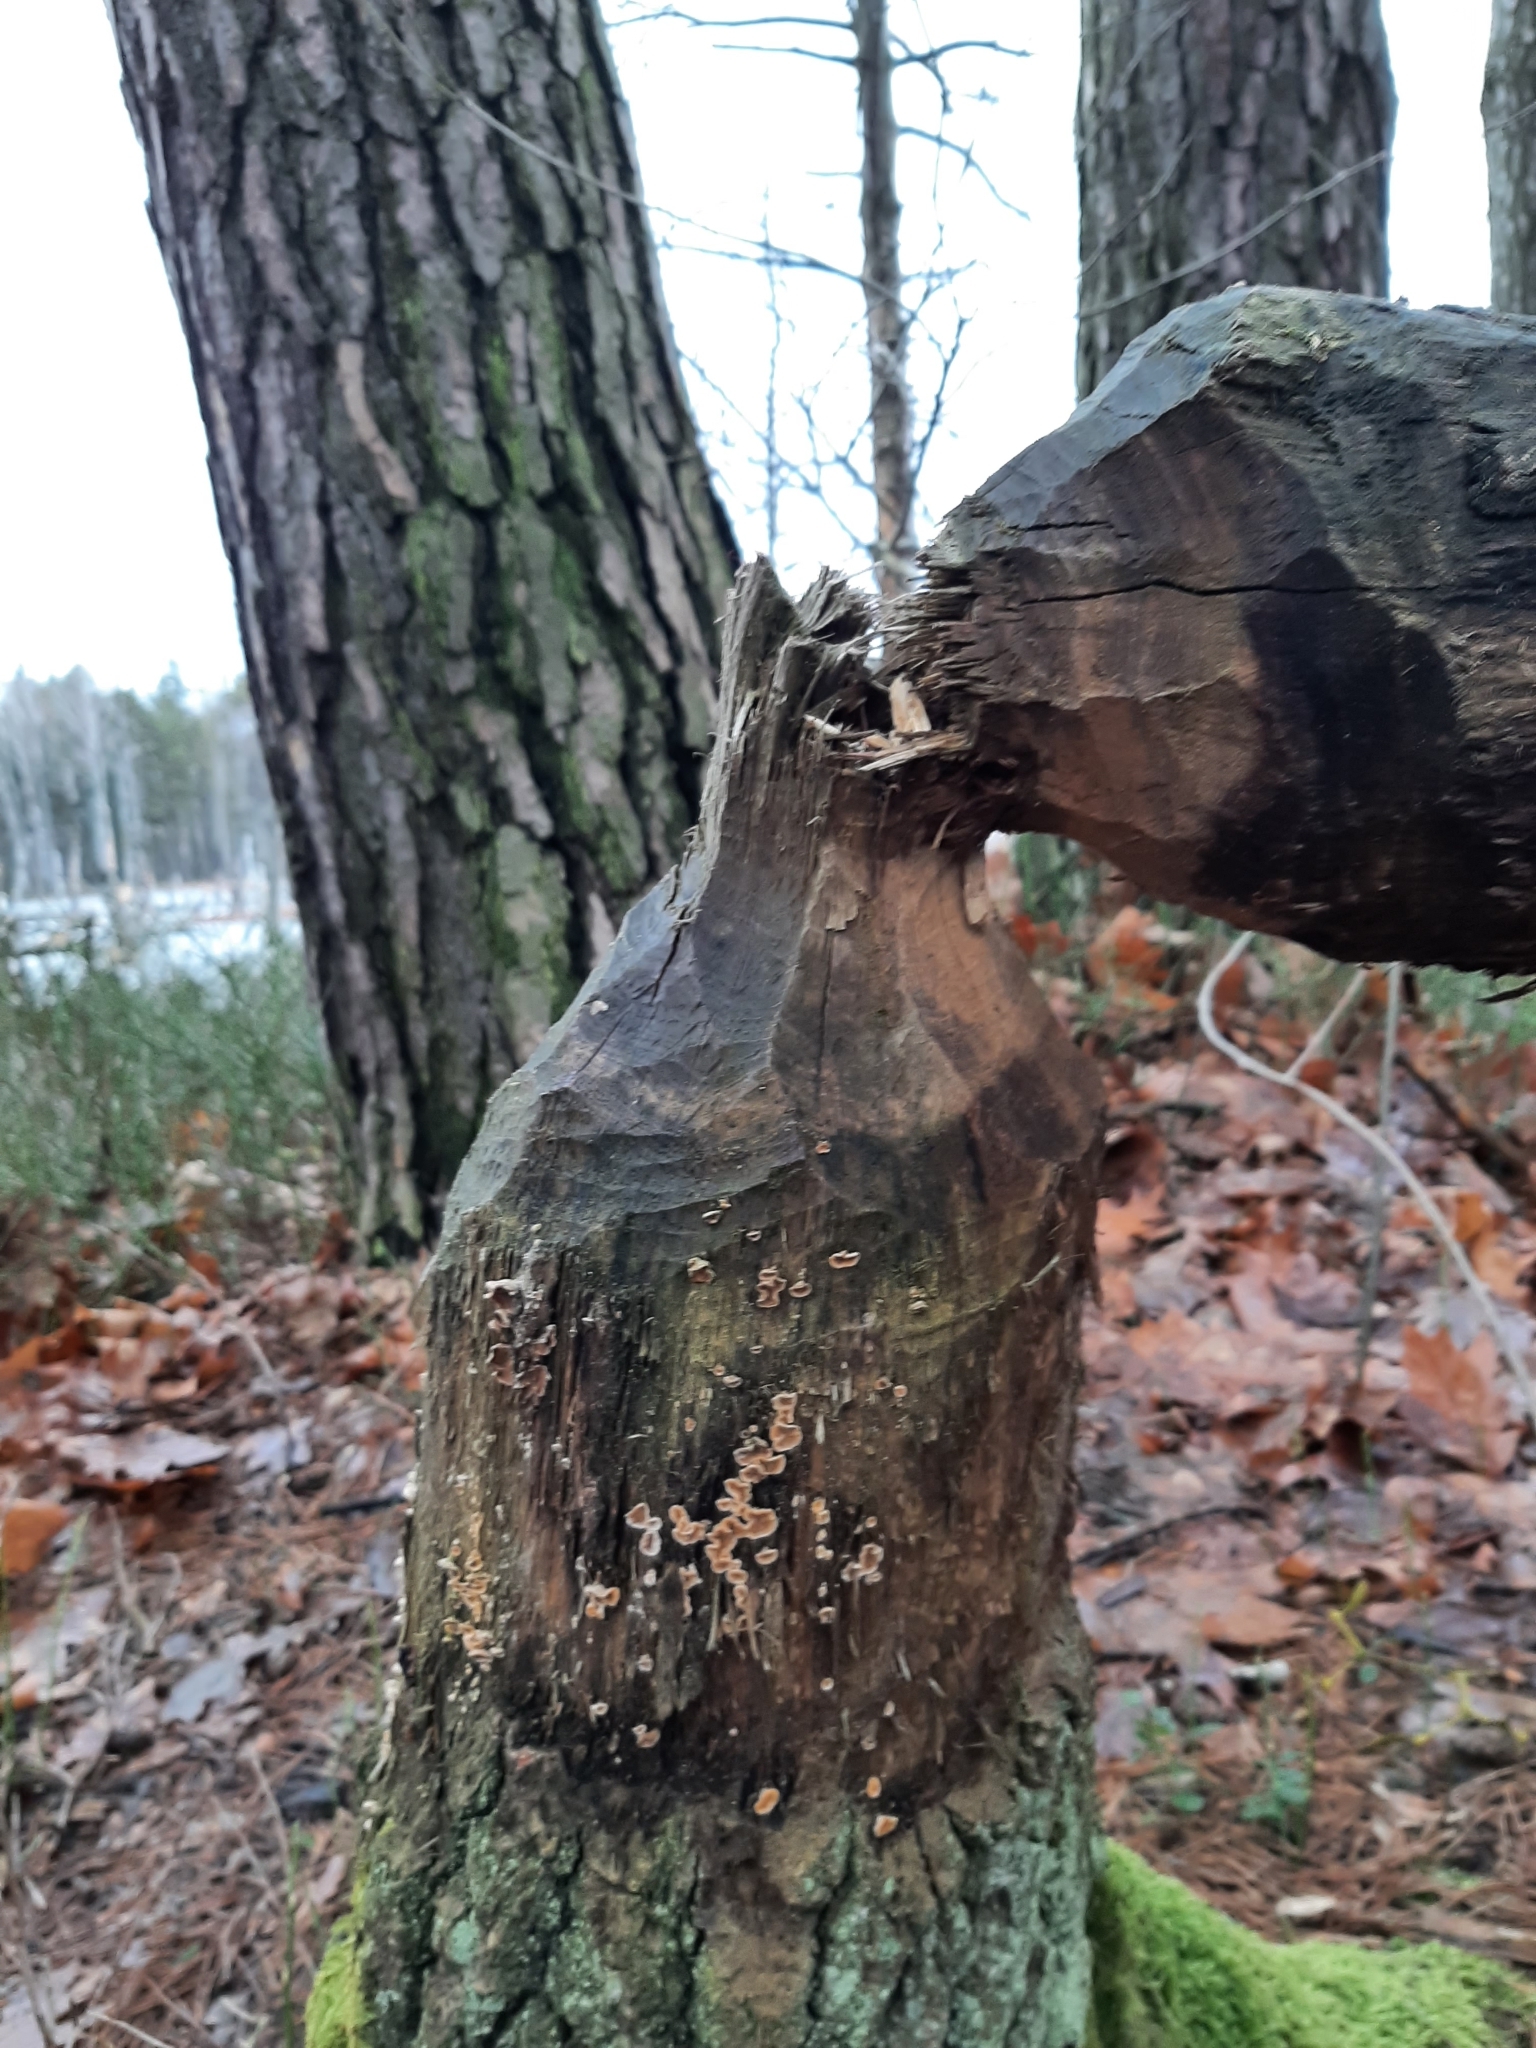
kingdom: Animalia
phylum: Chordata
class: Mammalia
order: Rodentia
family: Castoridae
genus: Castor
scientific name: Castor fiber
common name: Eurasian beaver
